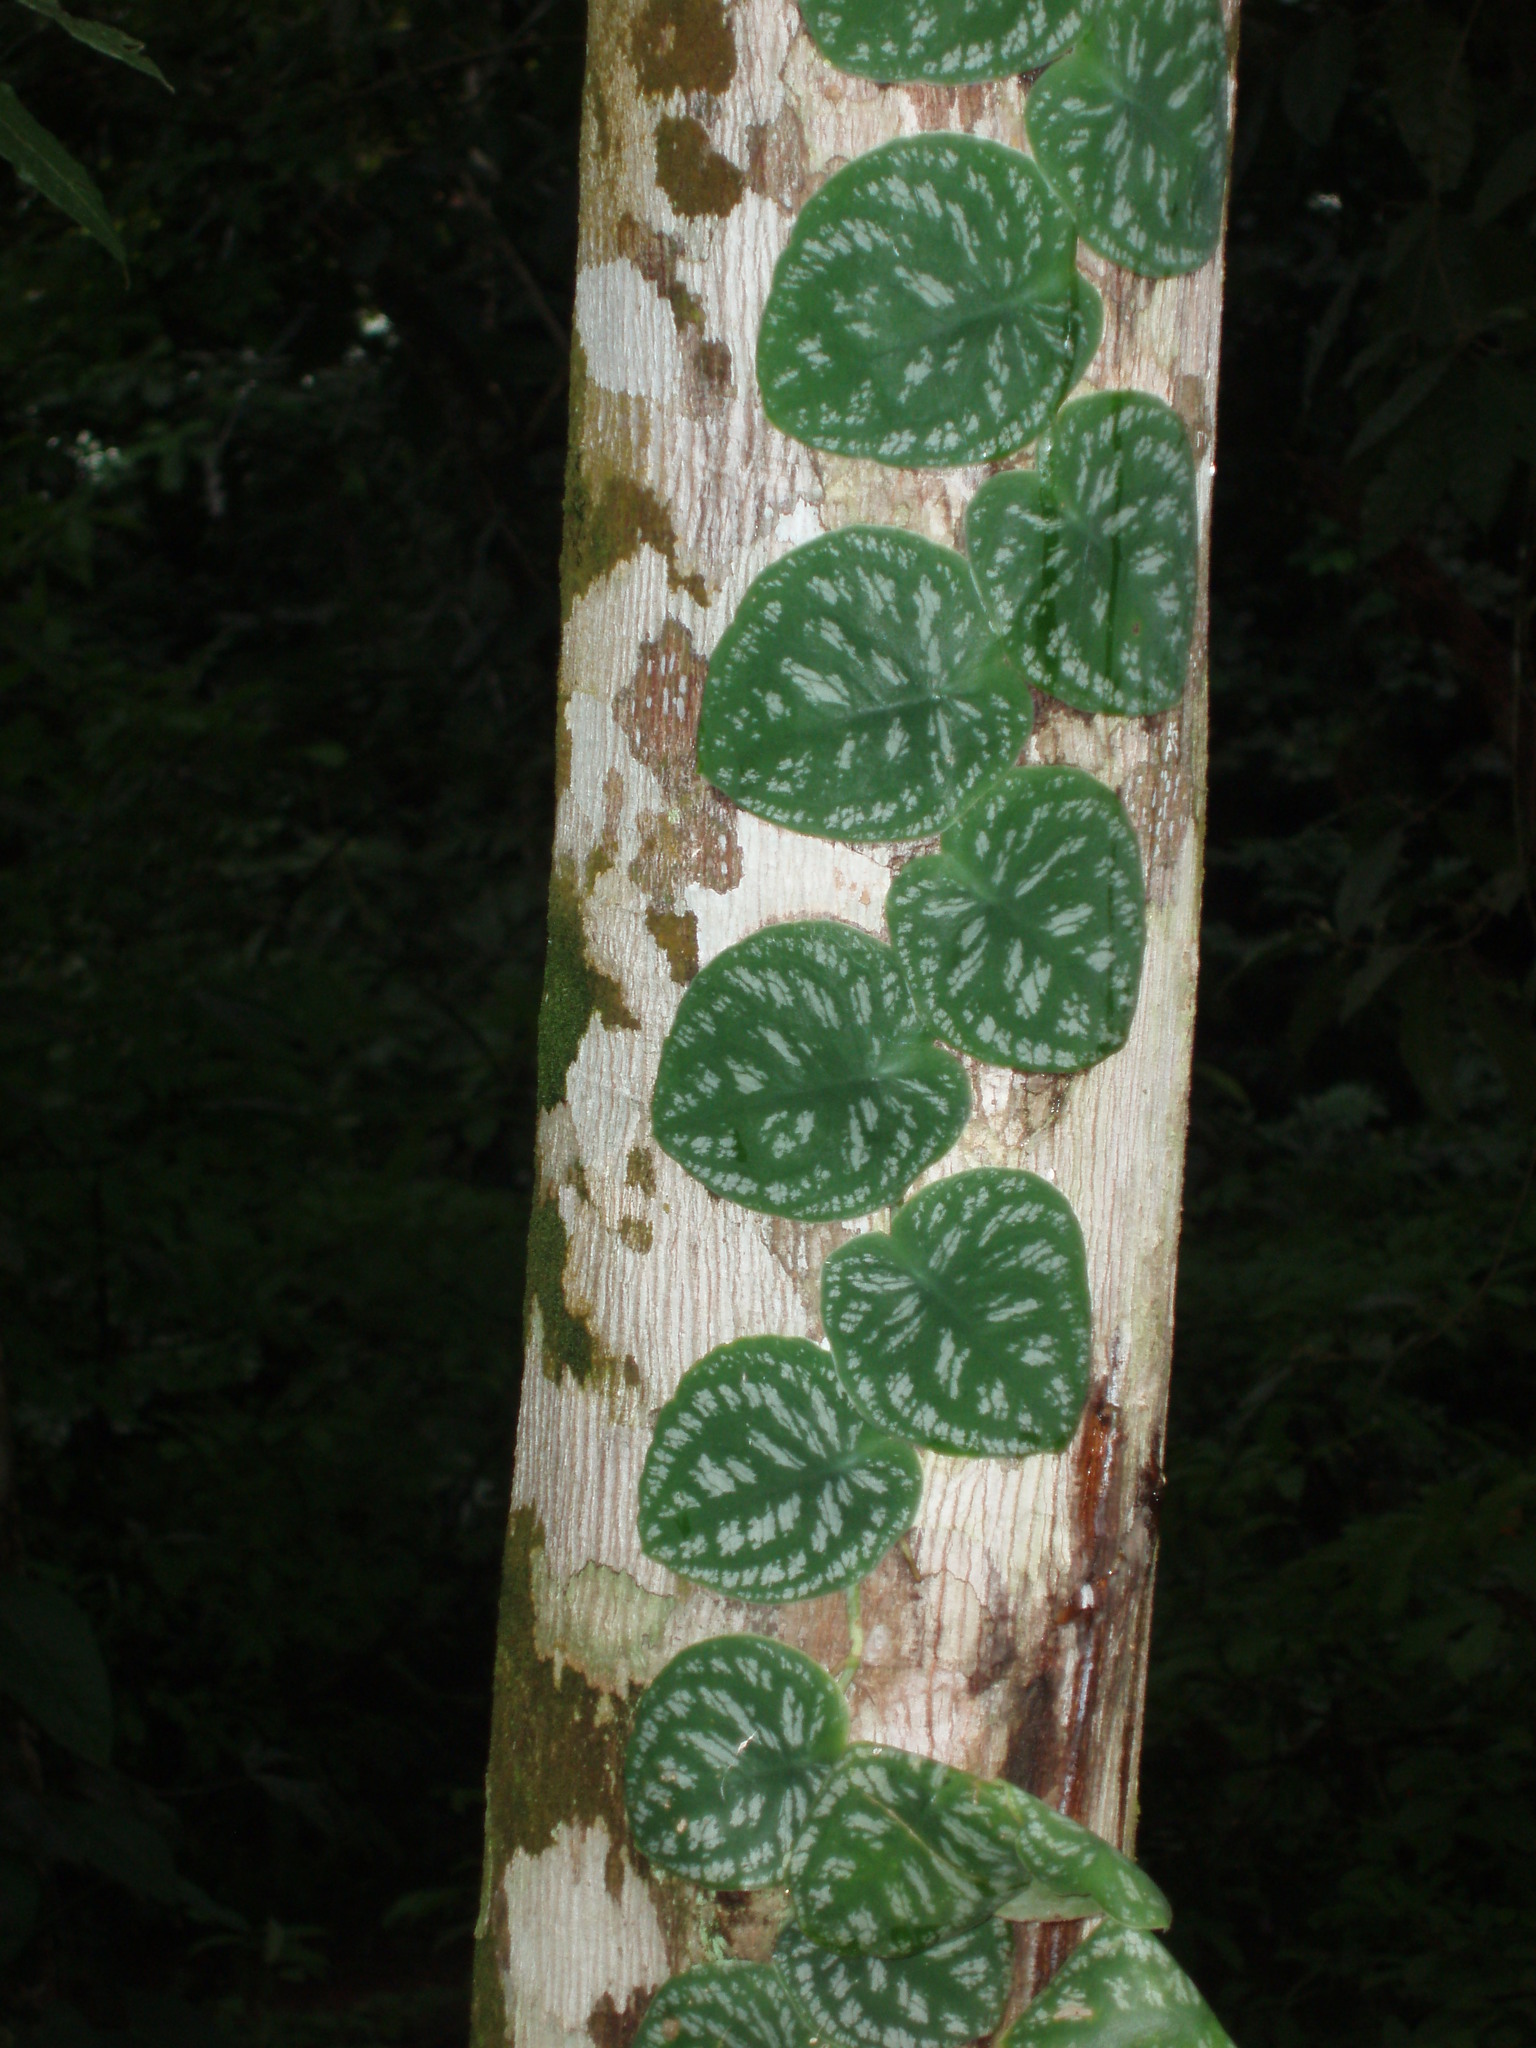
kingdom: Plantae
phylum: Tracheophyta
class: Liliopsida
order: Alismatales
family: Araceae
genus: Monstera
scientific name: Monstera tuberculata
